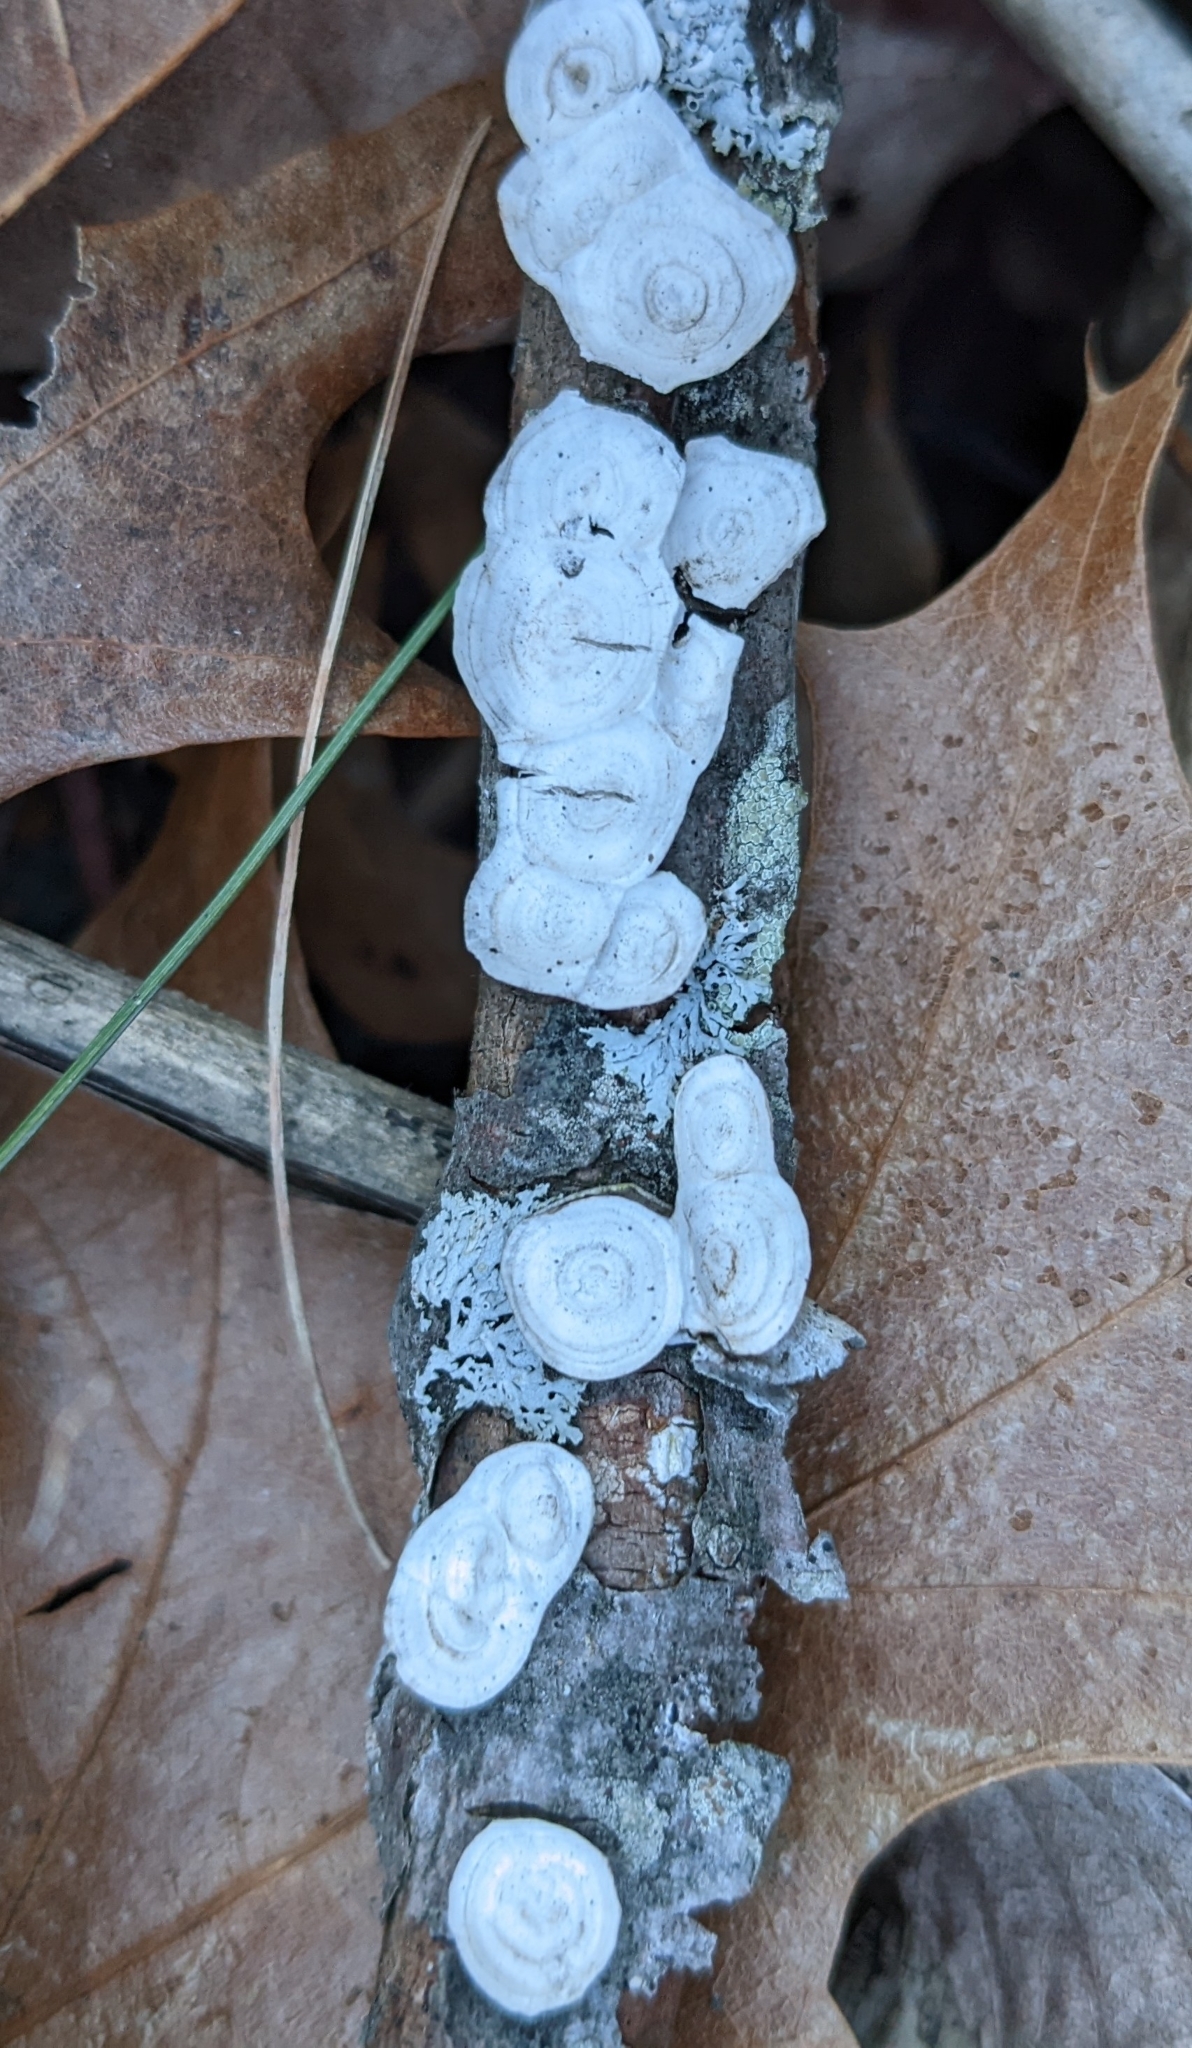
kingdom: Fungi
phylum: Basidiomycota
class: Agaricomycetes
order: Polyporales
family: Polyporaceae
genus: Poronidulus
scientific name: Poronidulus conchifer
